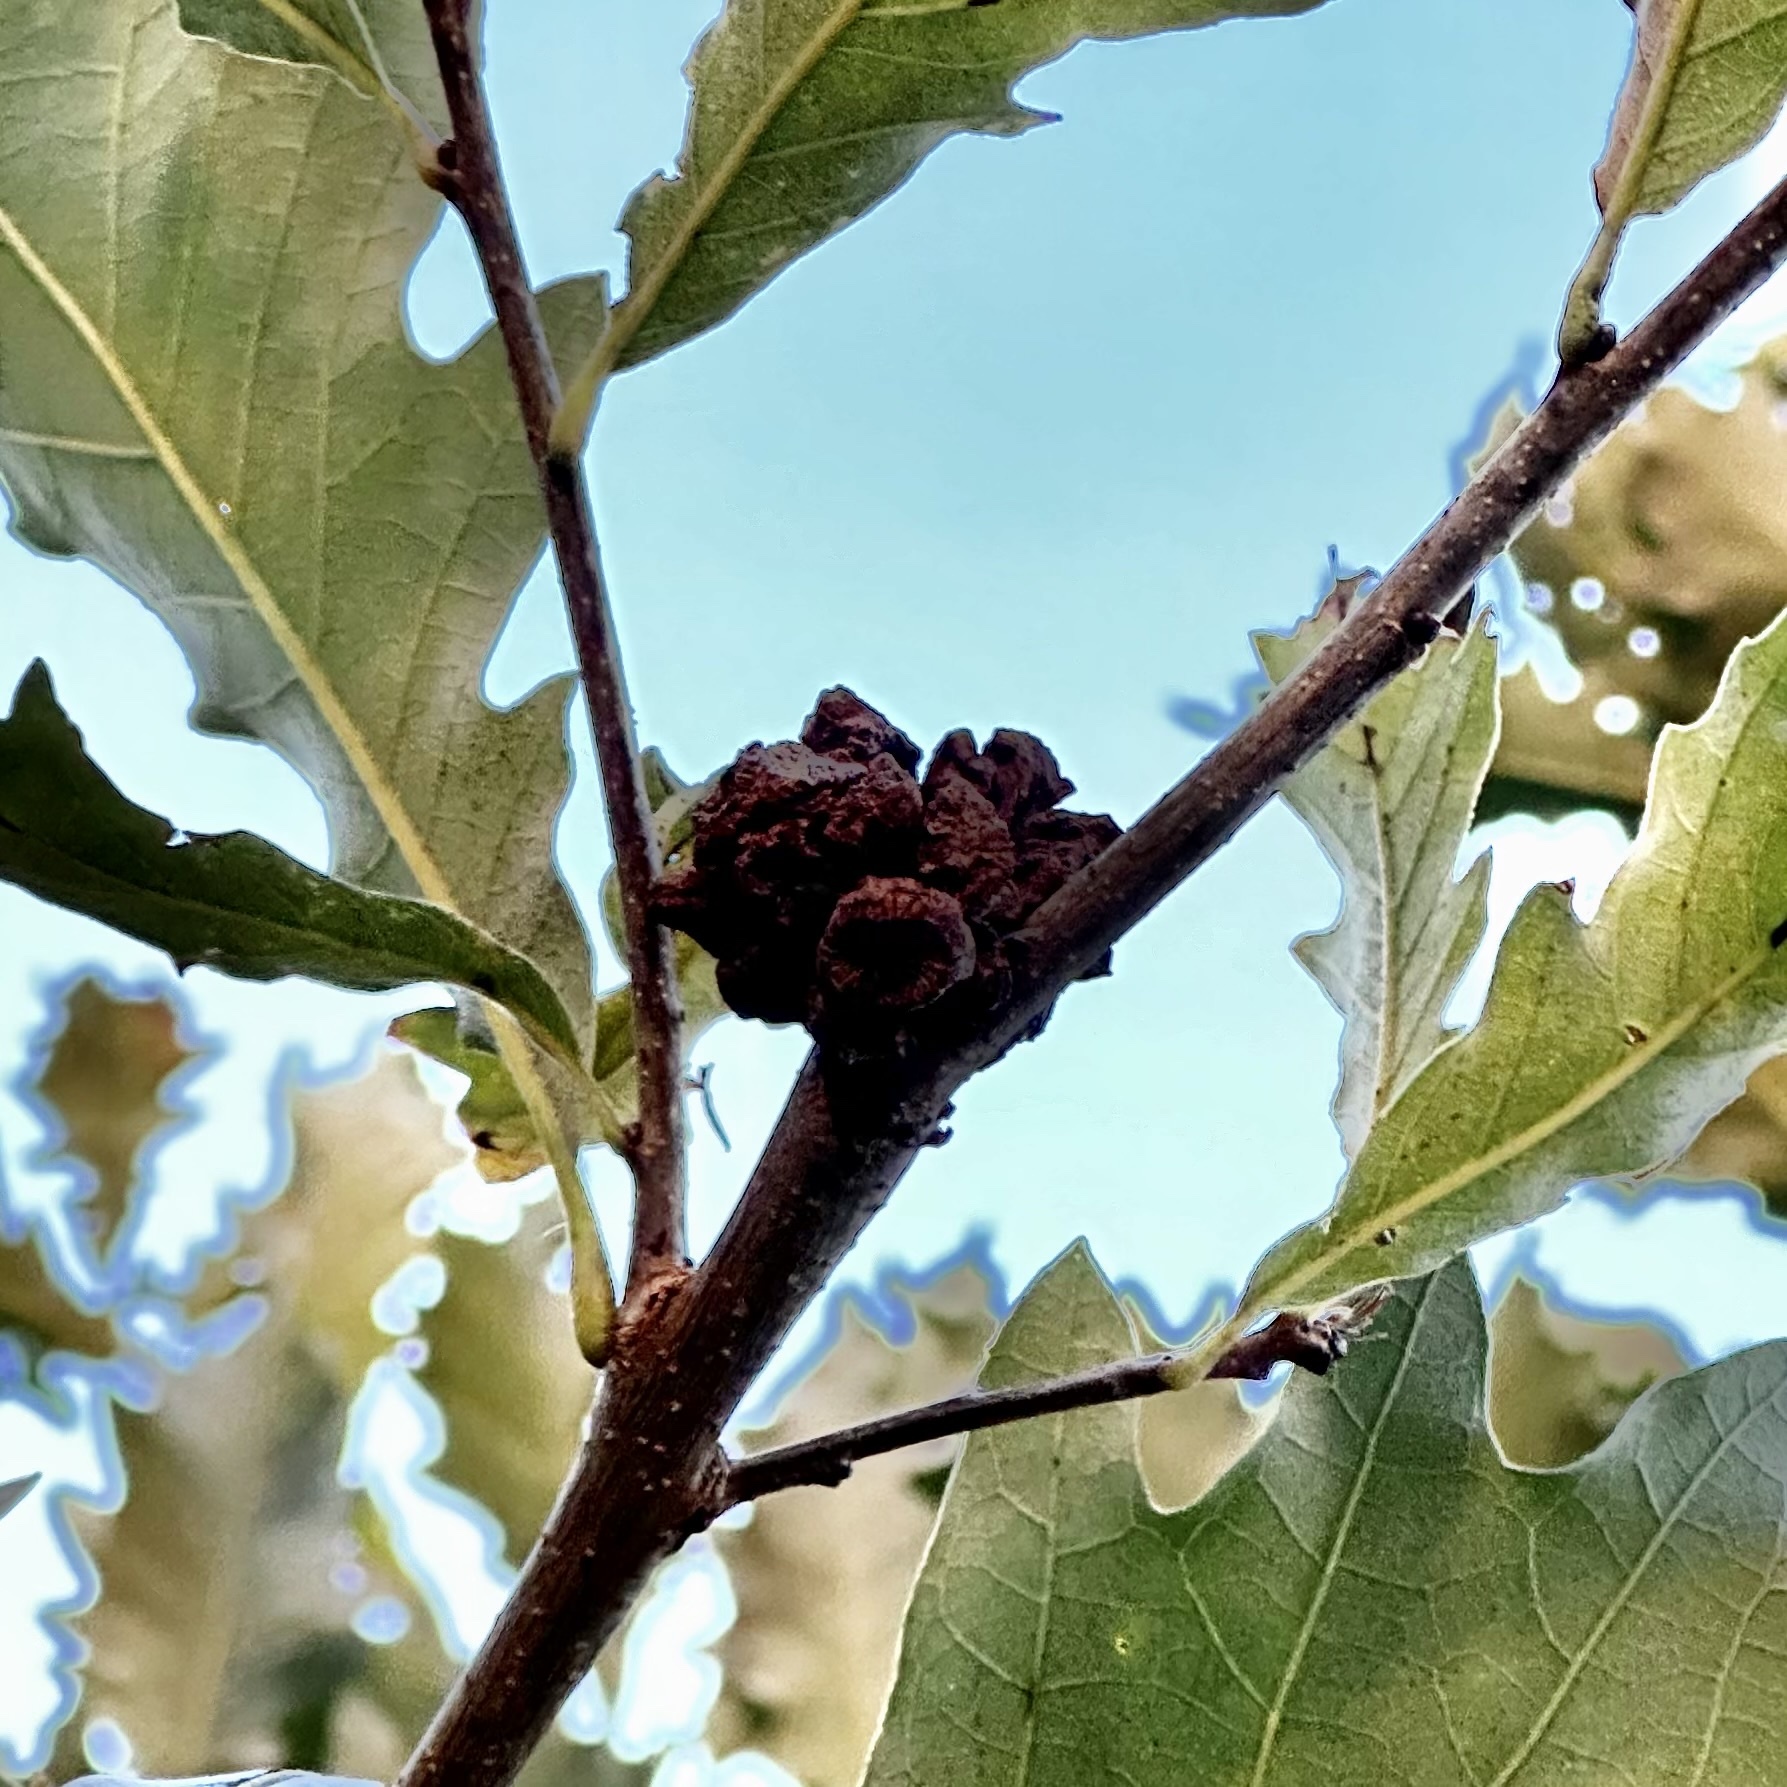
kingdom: Animalia
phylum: Arthropoda
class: Insecta
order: Hymenoptera
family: Cynipidae
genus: Andricus
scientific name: Andricus
